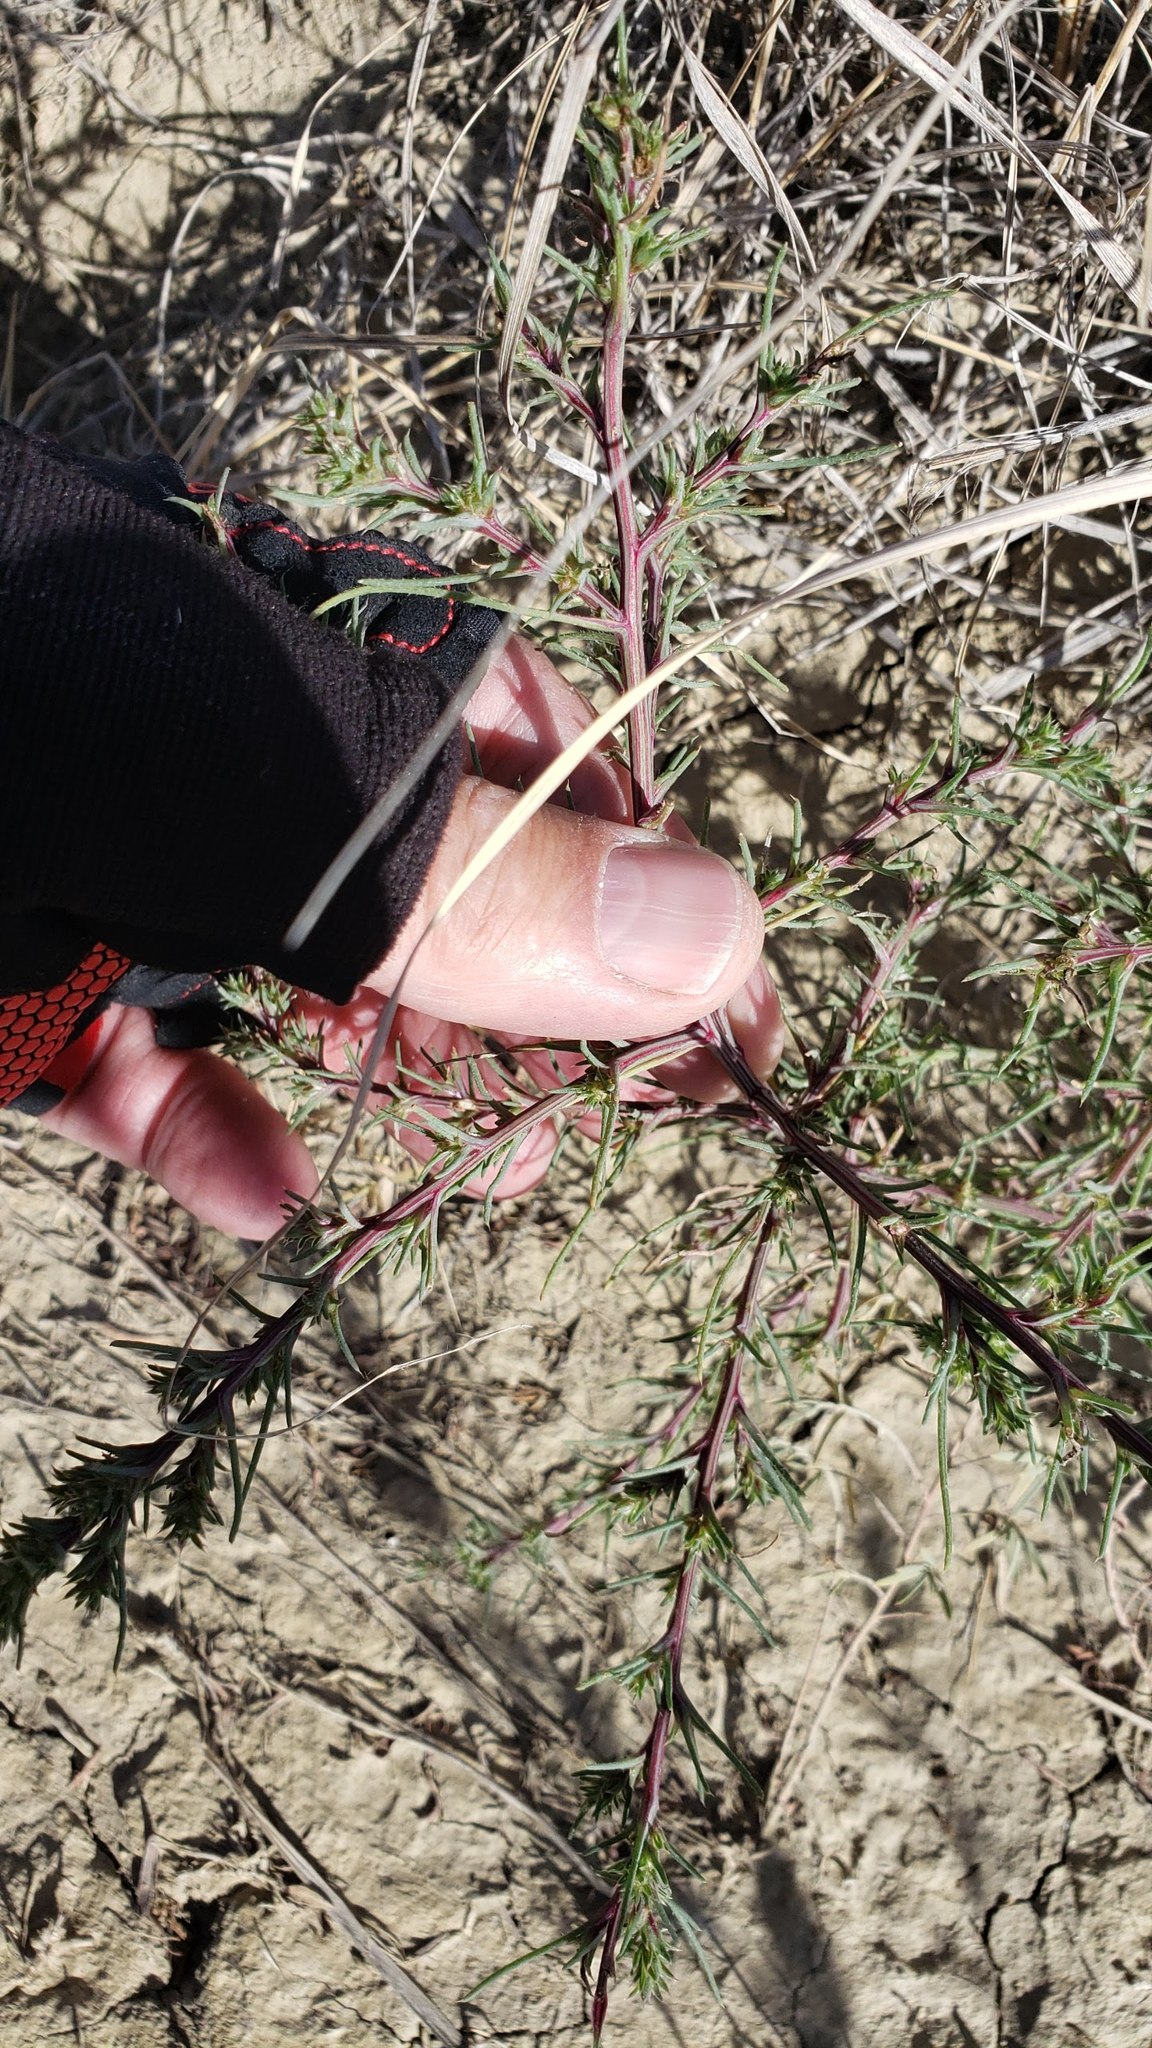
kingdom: Plantae
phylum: Tracheophyta
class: Magnoliopsida
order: Caryophyllales
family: Amaranthaceae
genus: Salsola
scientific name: Salsola tragus
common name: Prickly russian thistle
